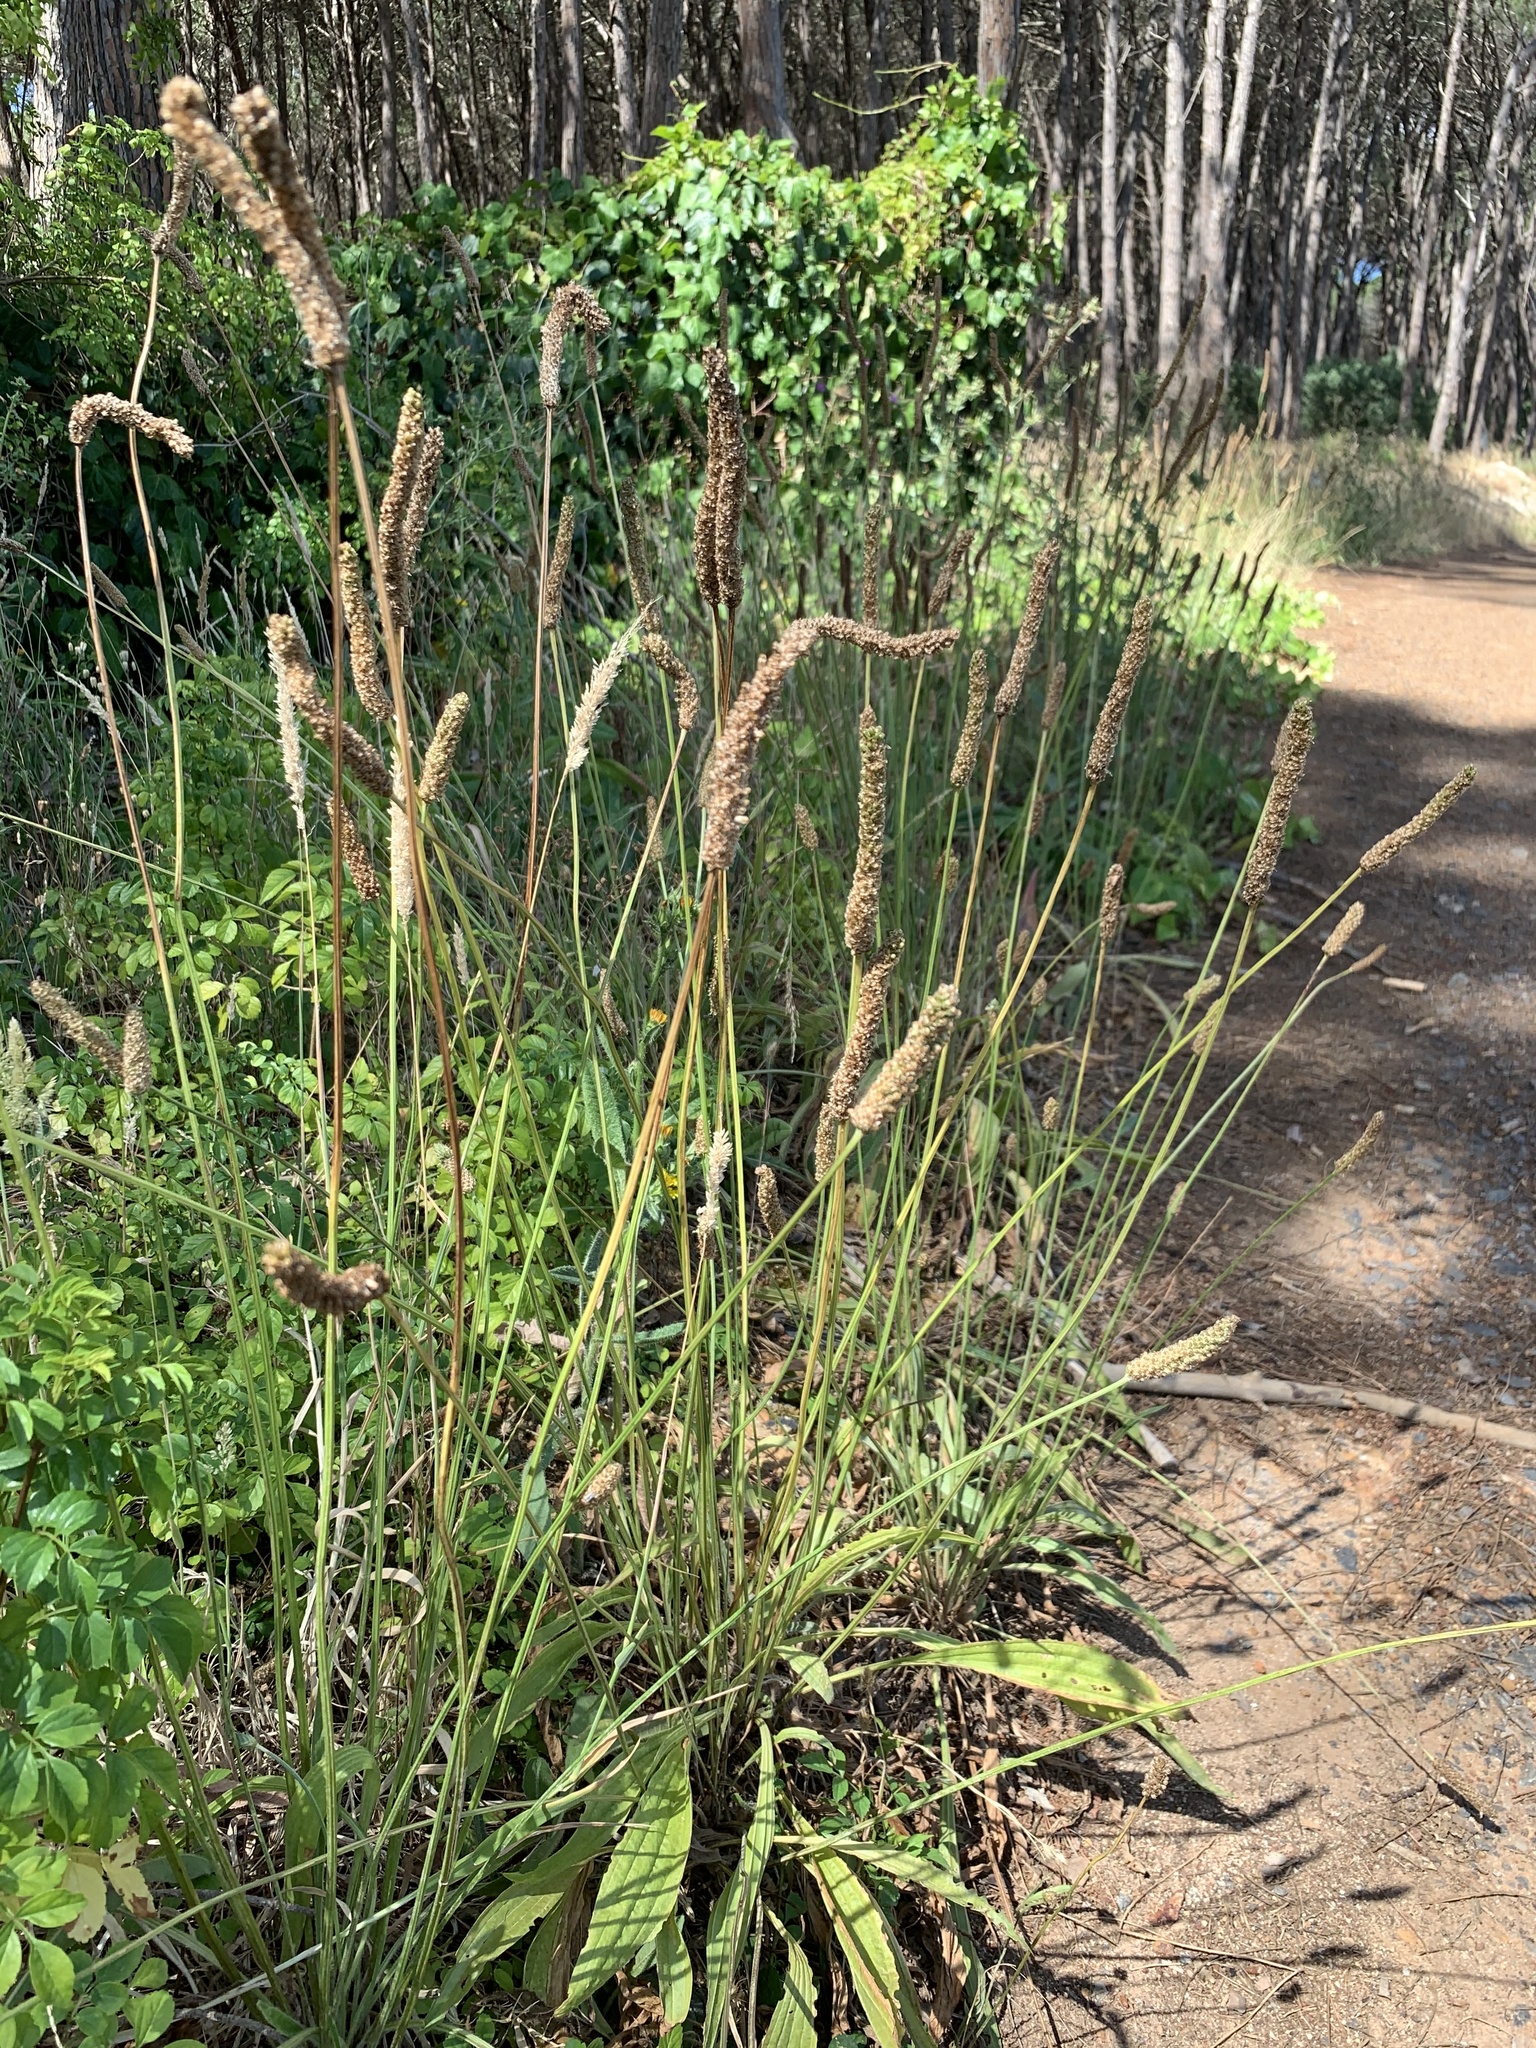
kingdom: Plantae
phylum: Tracheophyta
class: Magnoliopsida
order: Lamiales
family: Plantaginaceae
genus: Plantago
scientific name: Plantago lanceolata
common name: Ribwort plantain
